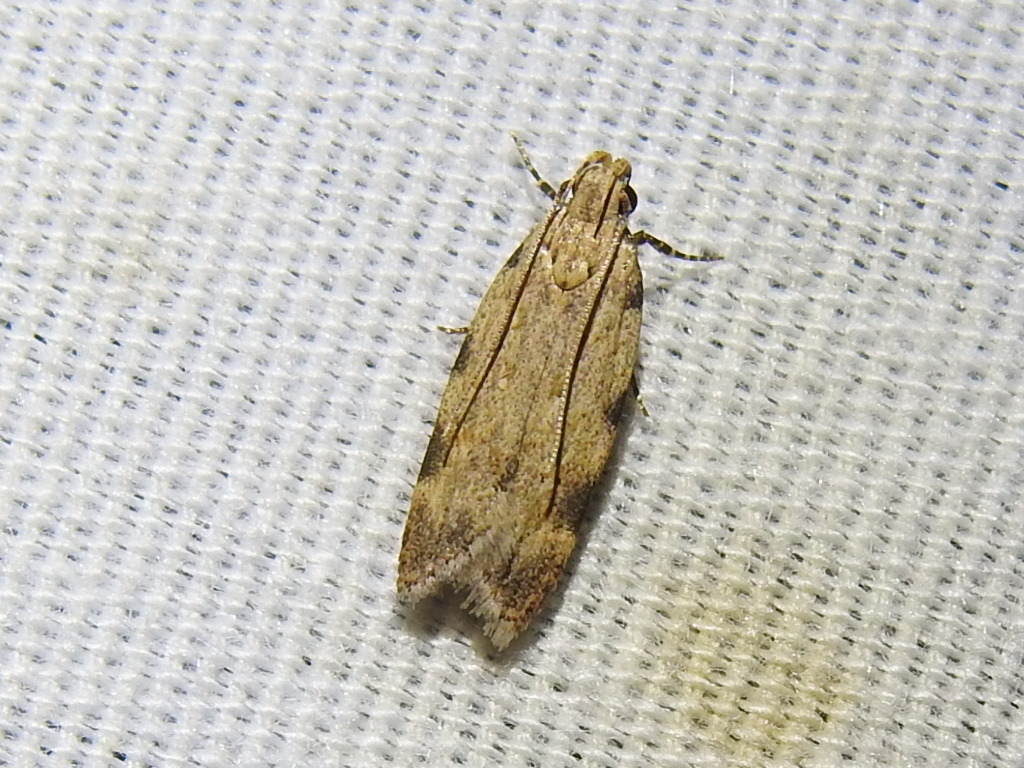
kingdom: Animalia
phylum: Arthropoda
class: Insecta
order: Lepidoptera
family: Gelechiidae
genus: Friseria
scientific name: Friseria cockerelli
